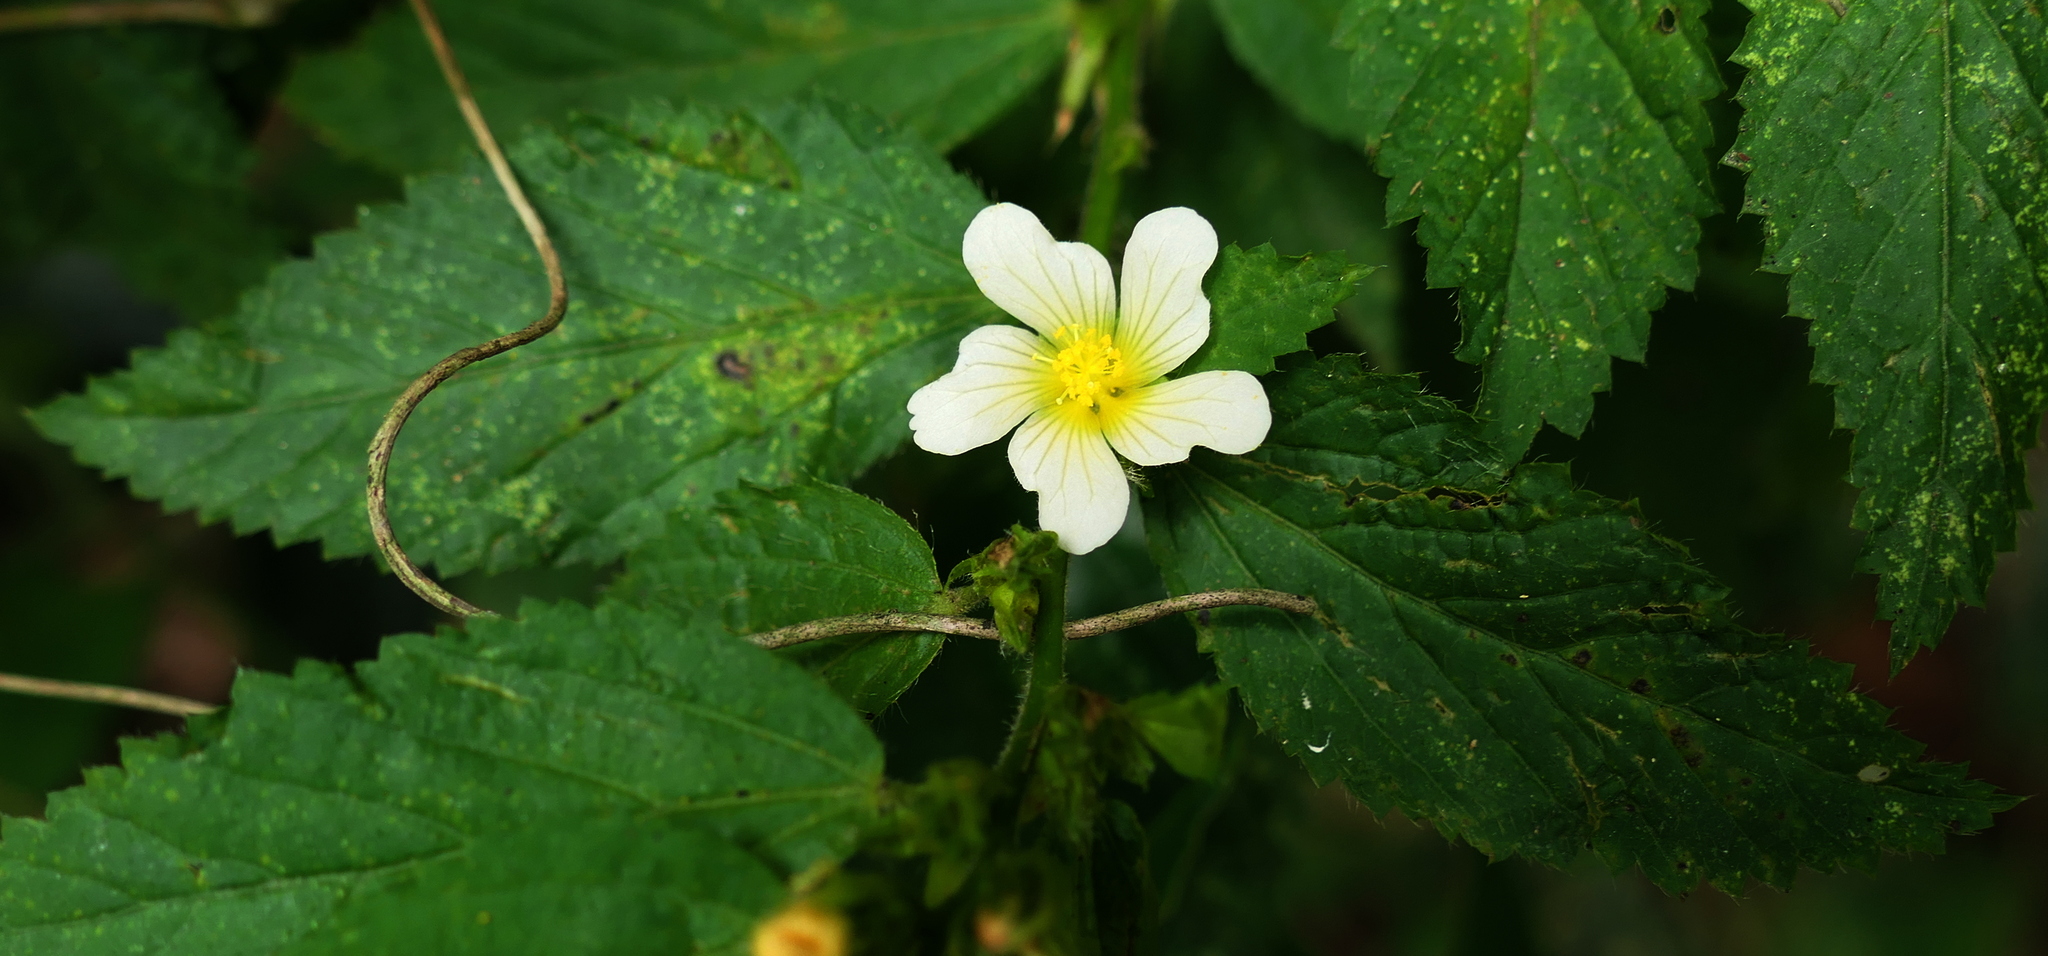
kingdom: Plantae
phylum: Tracheophyta
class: Magnoliopsida
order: Malvales
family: Malvaceae
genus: Sida
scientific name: Sida glomerata
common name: Clustered fanpetals
